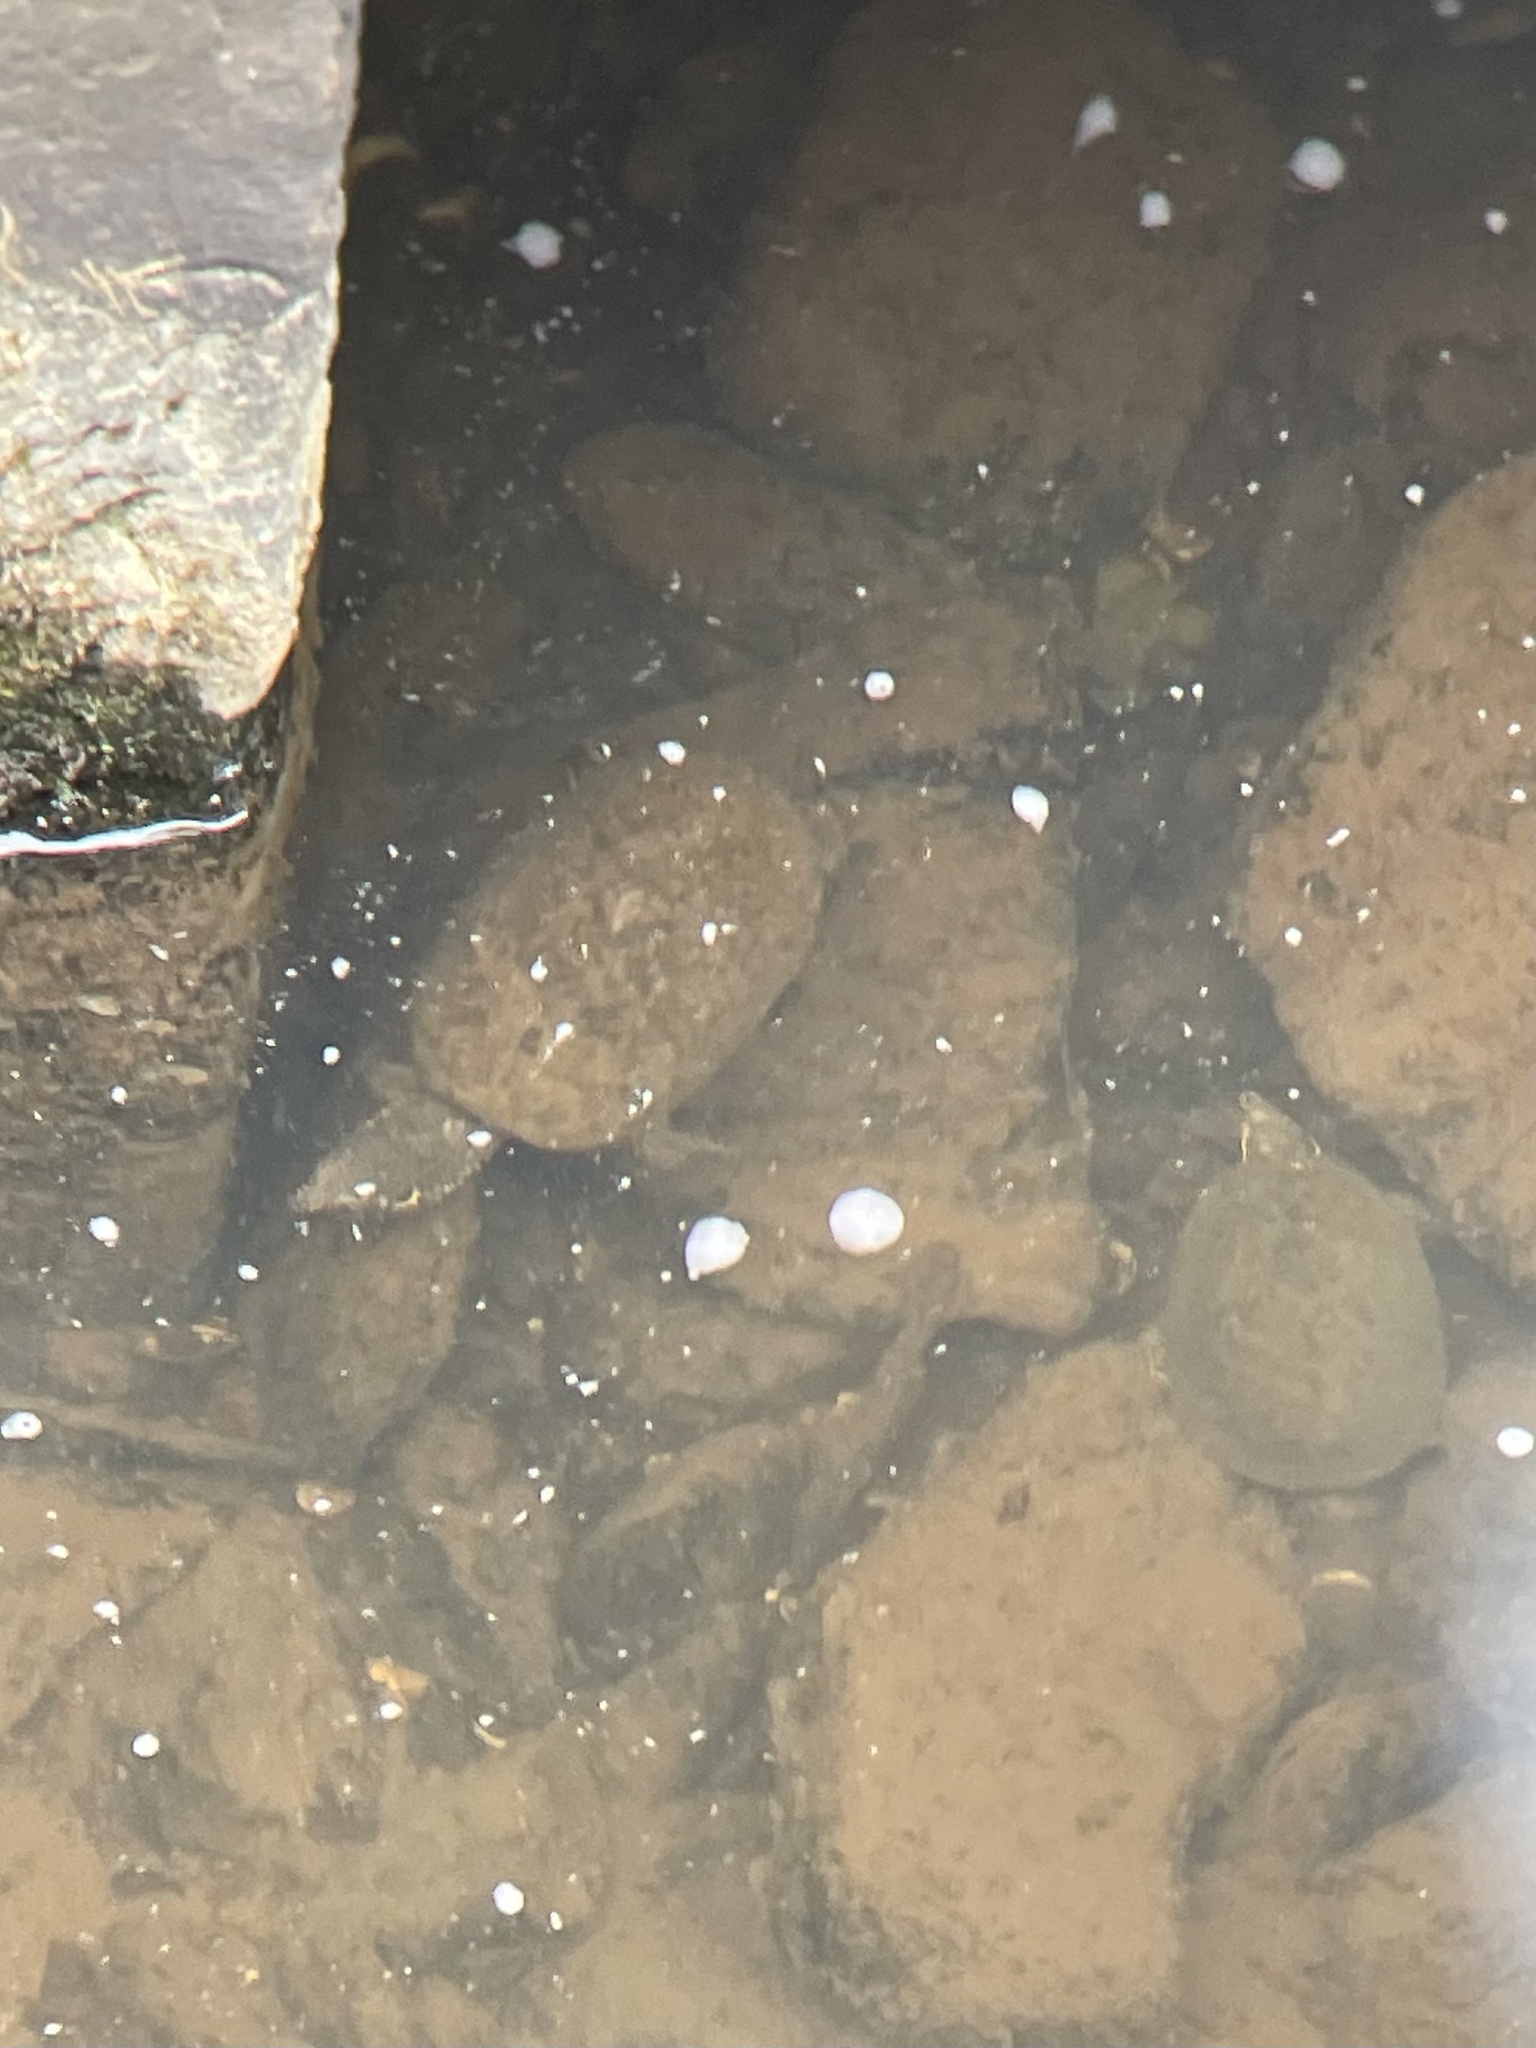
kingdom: Animalia
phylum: Chordata
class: Testudines
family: Kinosternidae
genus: Sternotherus
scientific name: Sternotherus odoratus
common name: Common musk turtle
